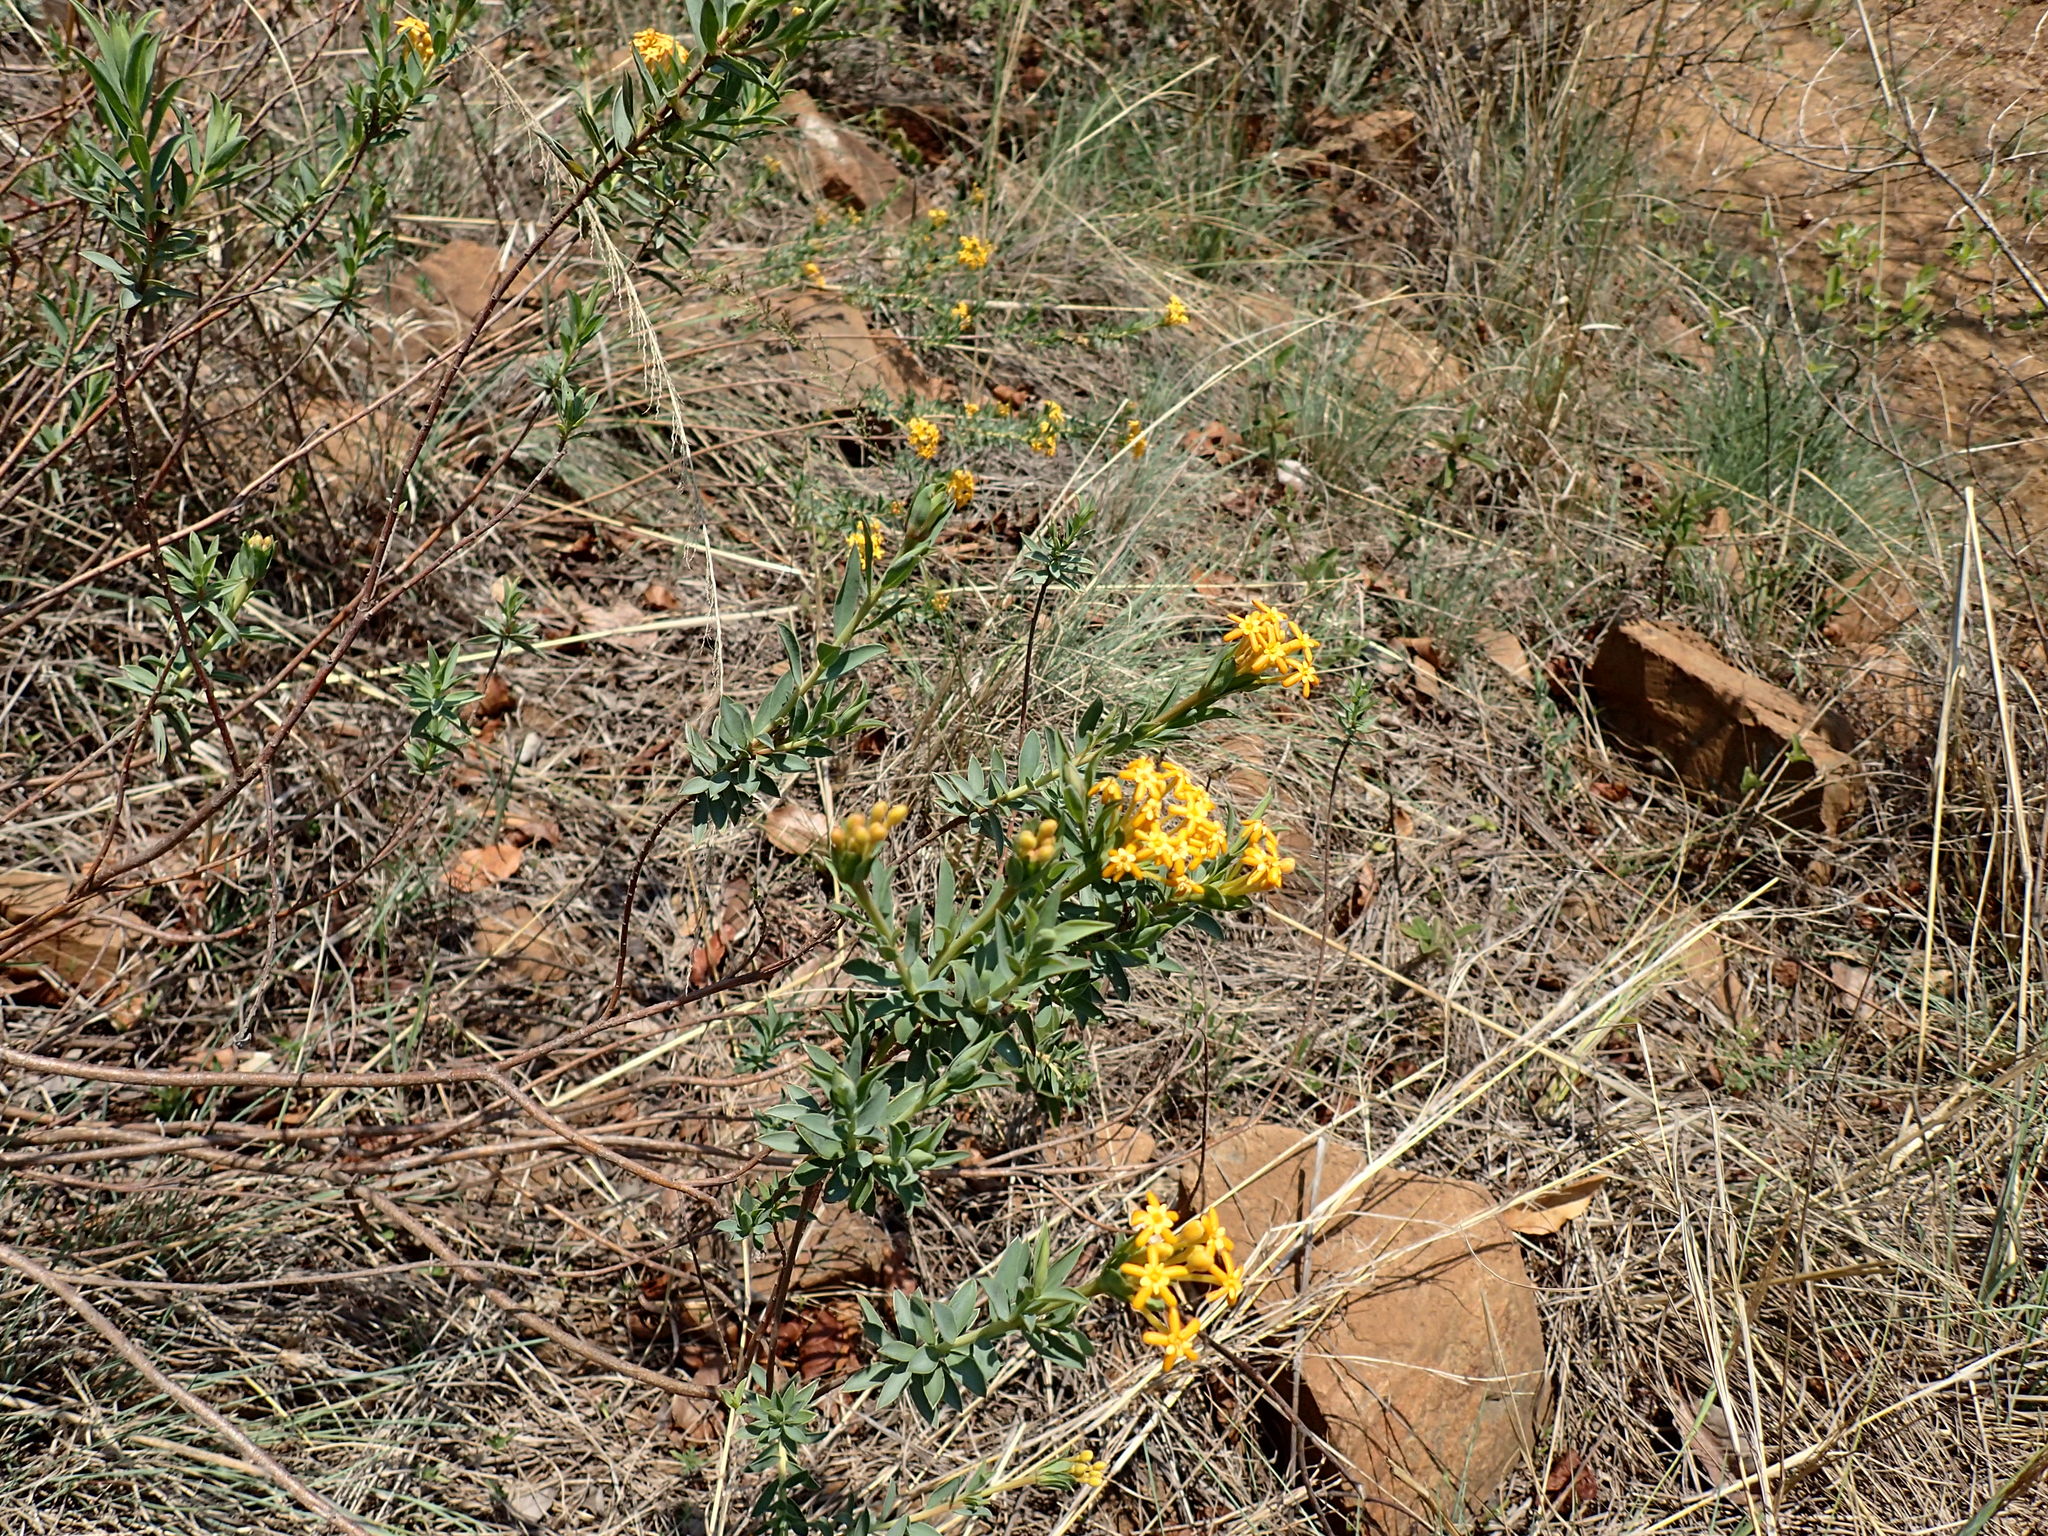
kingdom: Plantae
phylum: Tracheophyta
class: Magnoliopsida
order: Malvales
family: Thymelaeaceae
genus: Gnidia
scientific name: Gnidia capitata
